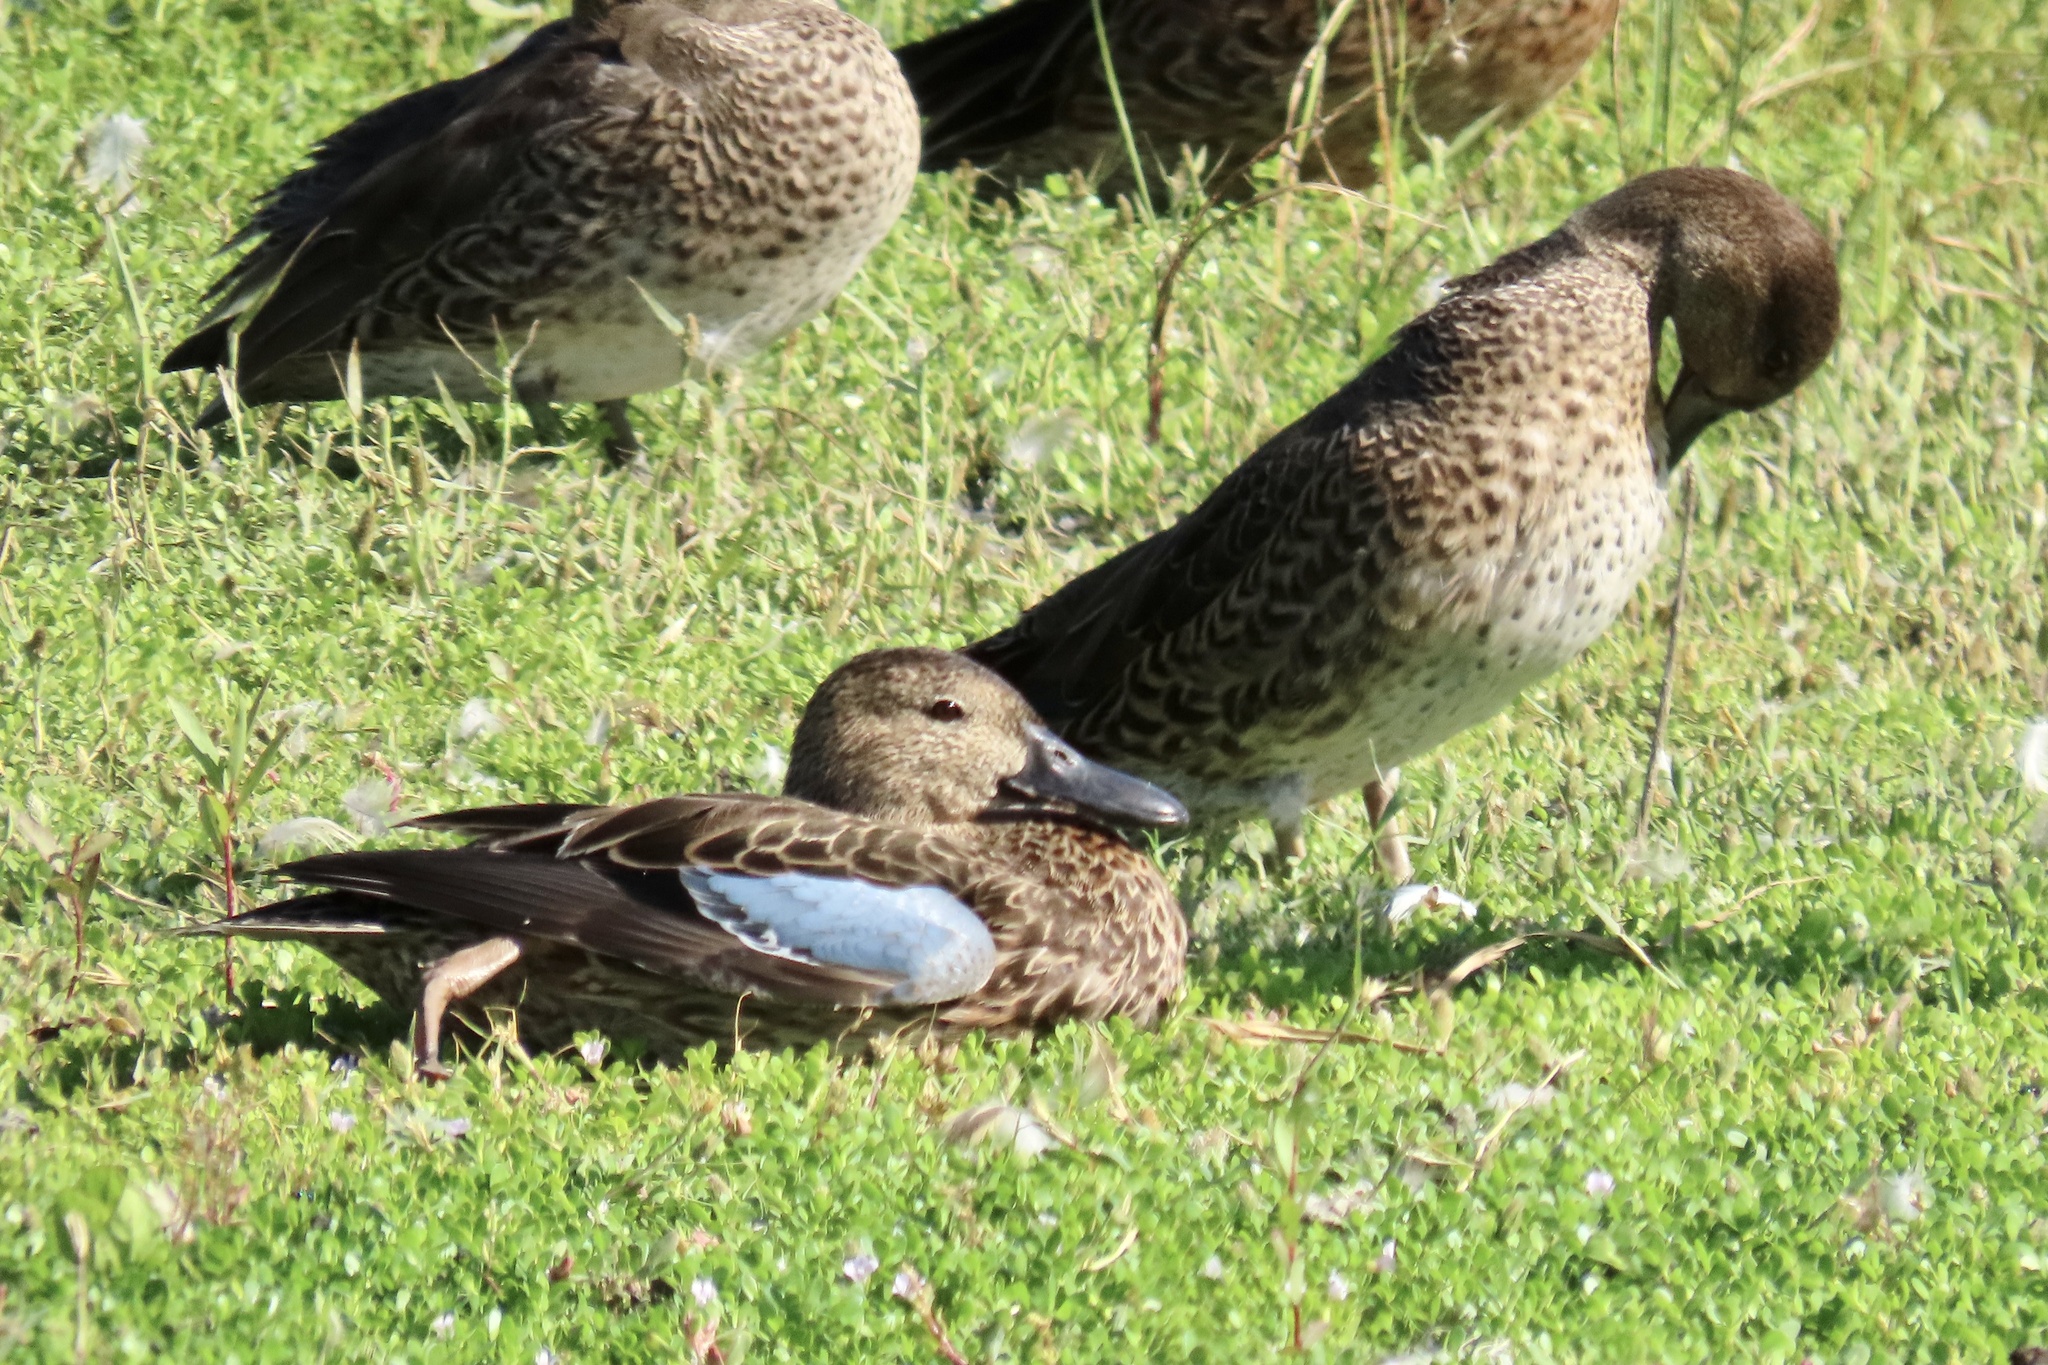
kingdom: Animalia
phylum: Chordata
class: Aves
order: Anseriformes
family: Anatidae
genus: Spatula
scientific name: Spatula cyanoptera
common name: Cinnamon teal
